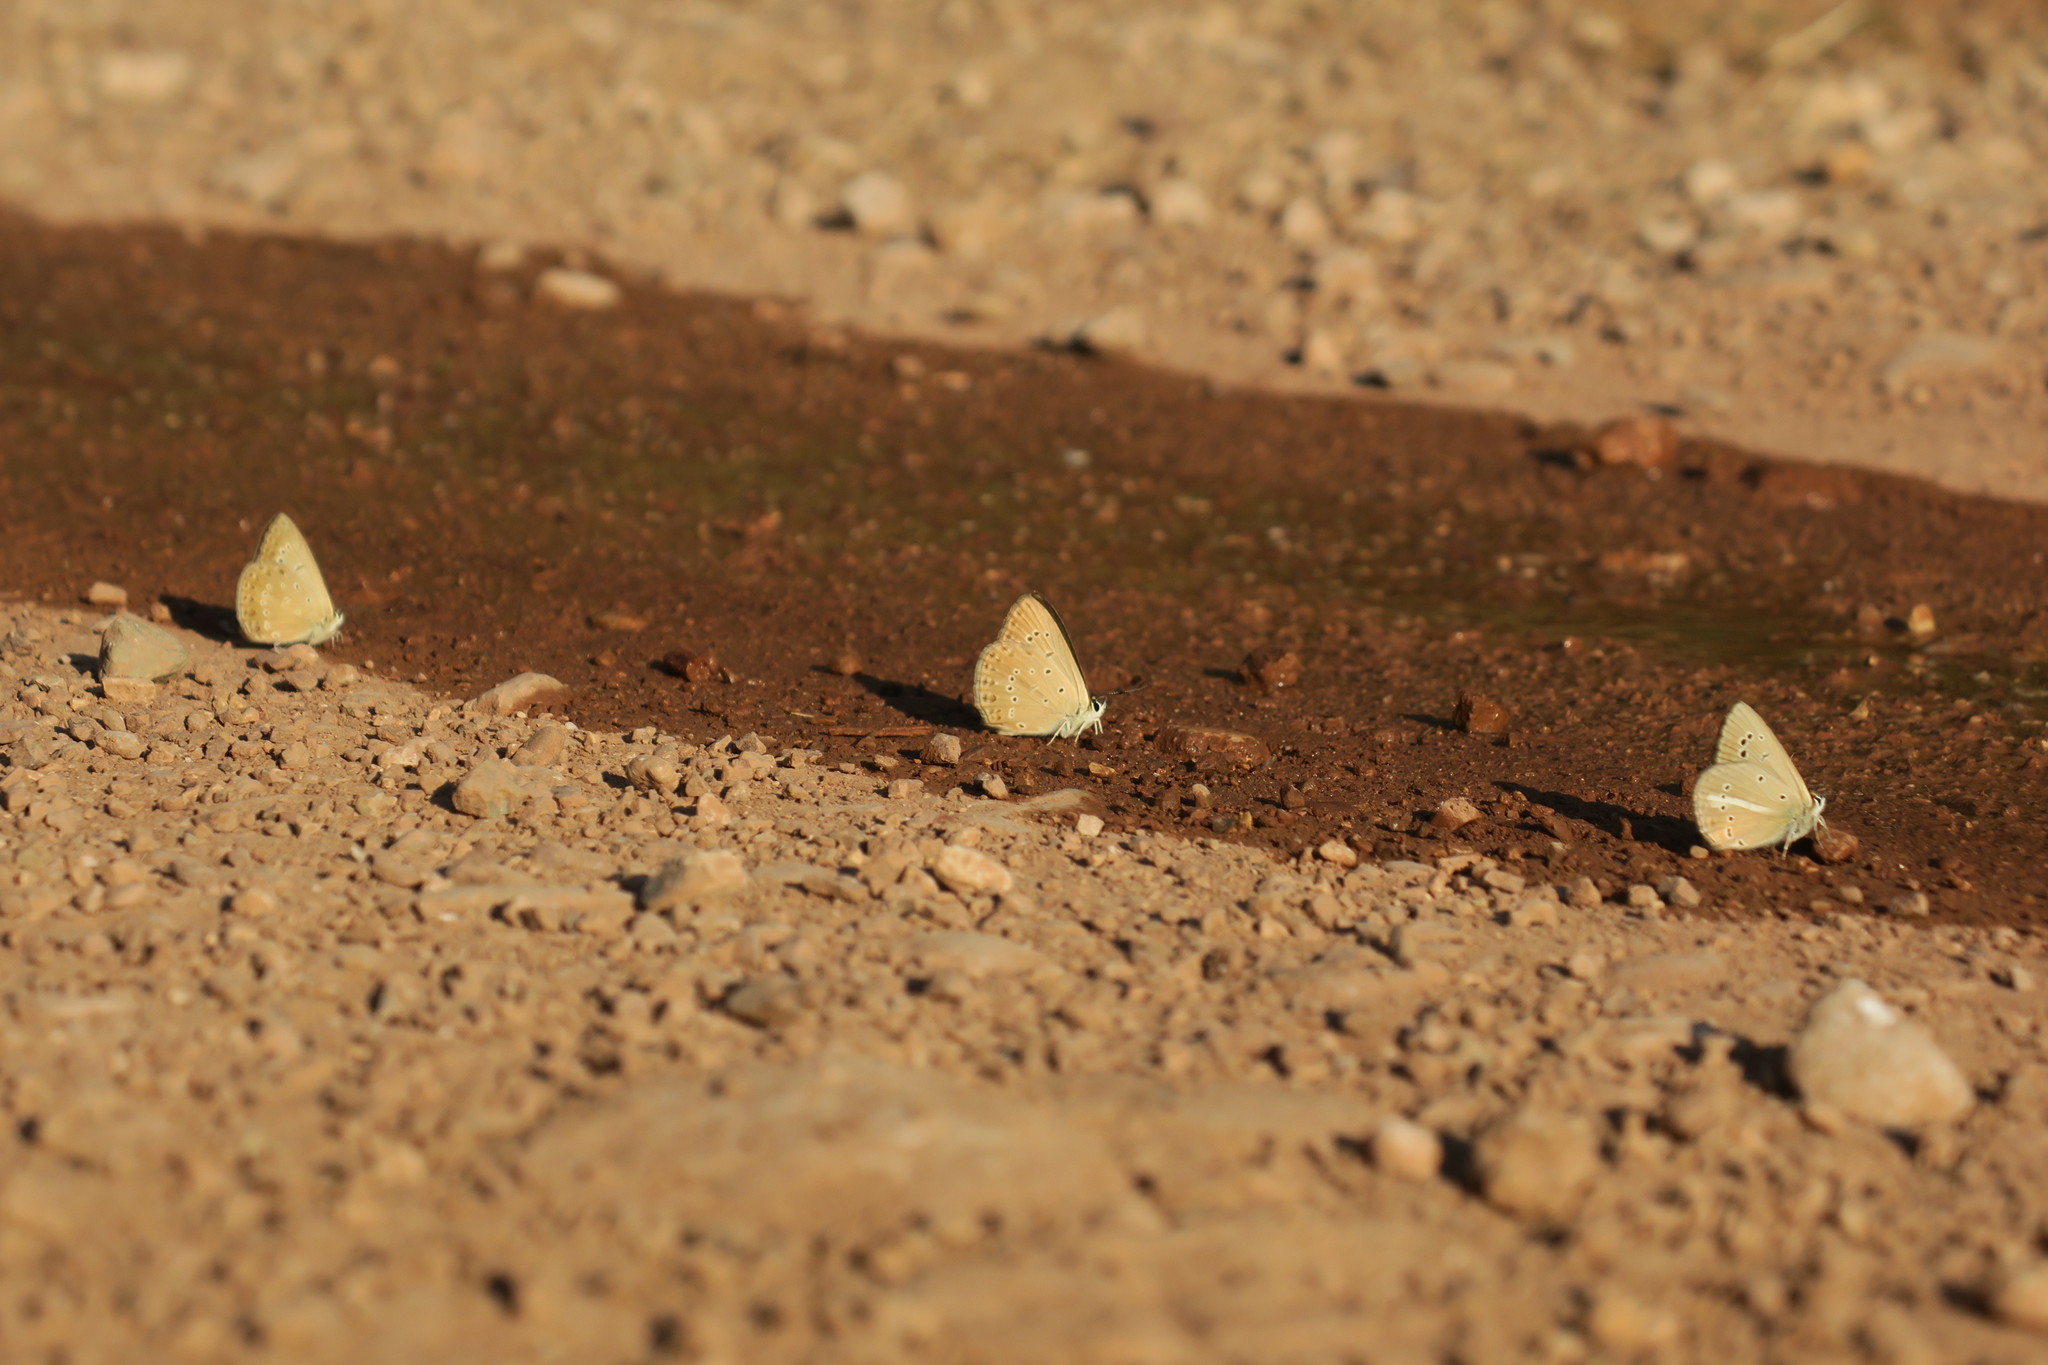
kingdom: Animalia
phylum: Arthropoda
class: Insecta
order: Lepidoptera
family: Lycaenidae
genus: Agrodiaetus
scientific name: Agrodiaetus admetus
